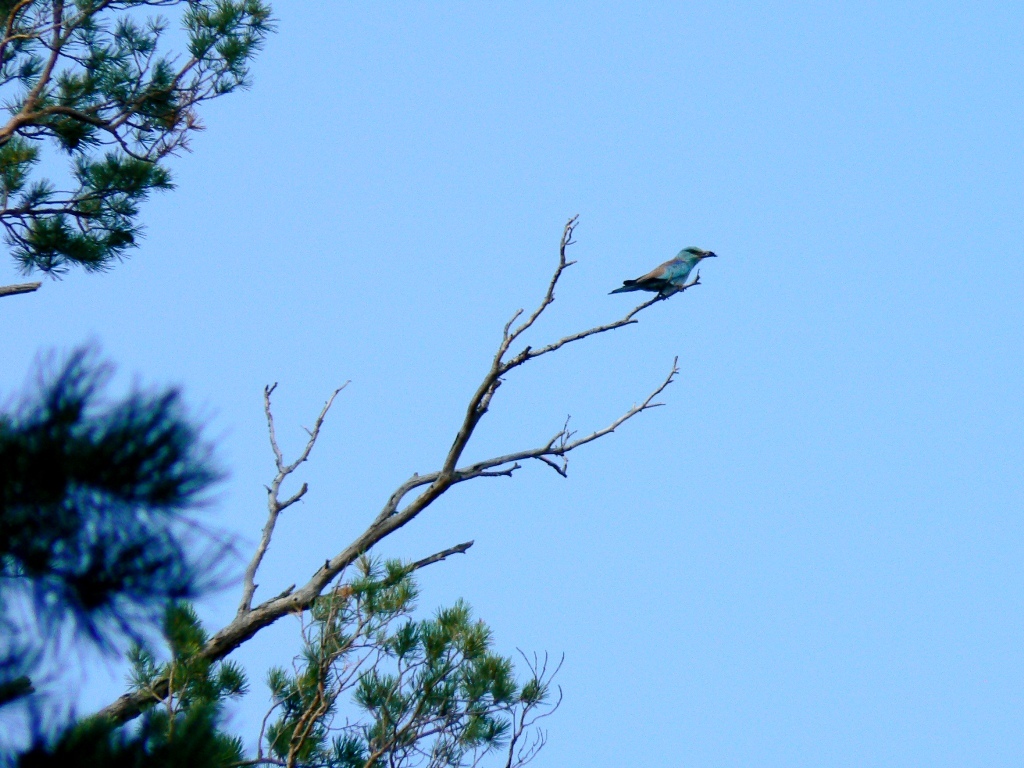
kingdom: Animalia
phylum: Chordata
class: Aves
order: Coraciiformes
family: Coraciidae
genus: Coracias
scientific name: Coracias garrulus
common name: European roller
